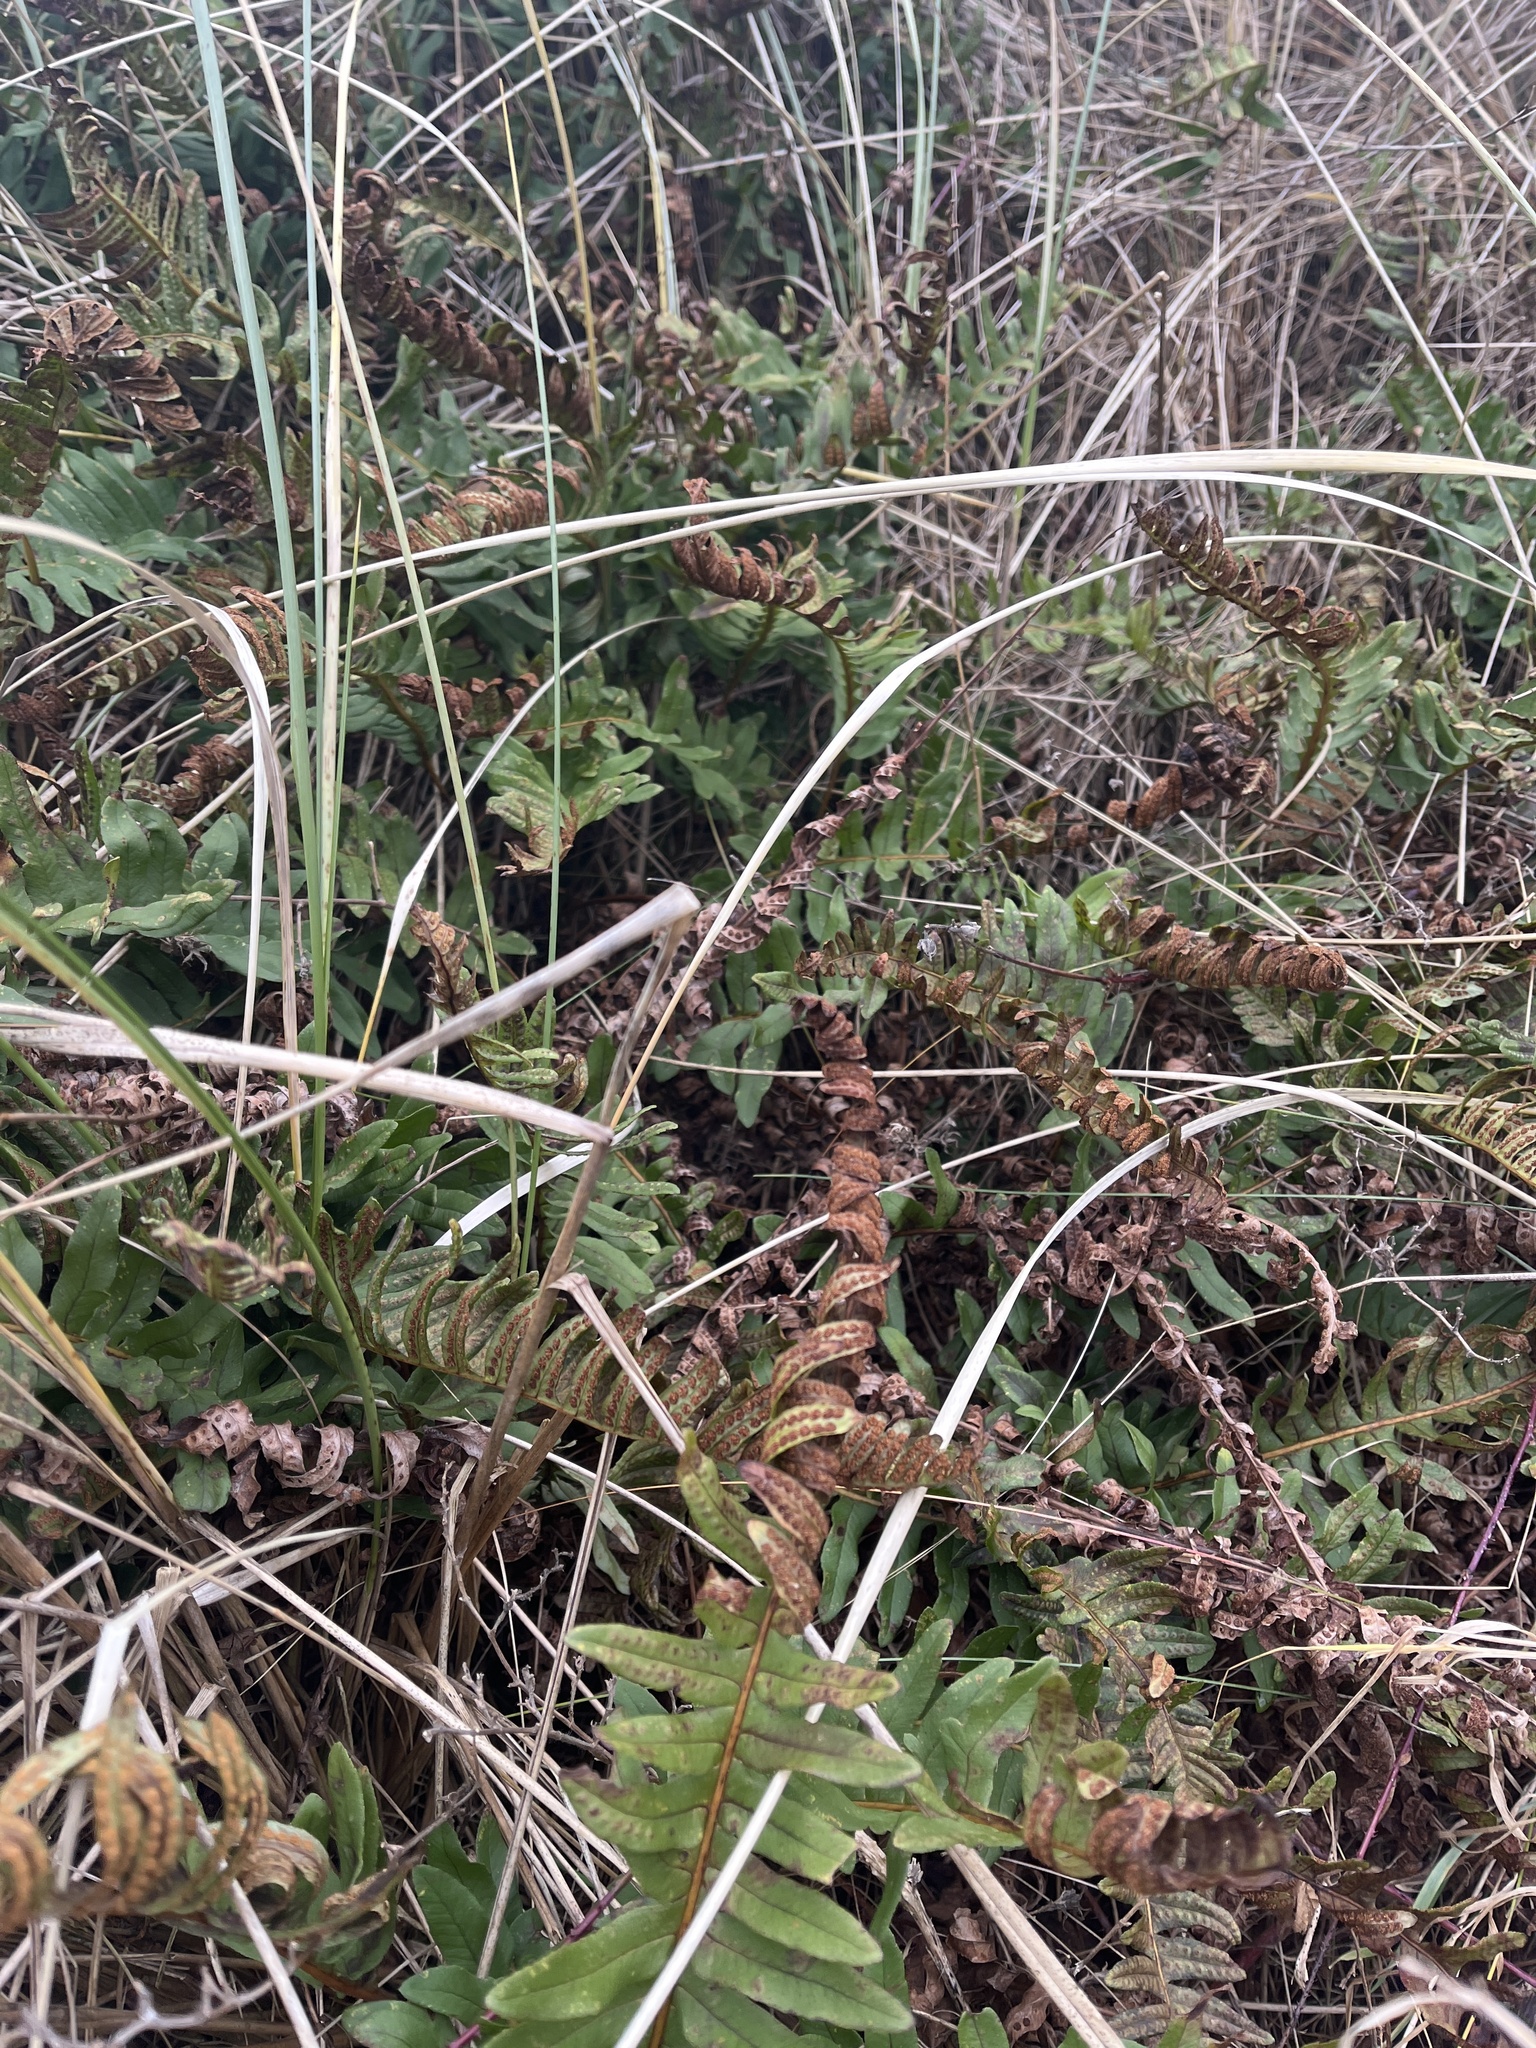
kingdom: Plantae
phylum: Tracheophyta
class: Polypodiopsida
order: Polypodiales
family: Polypodiaceae
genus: Polypodium
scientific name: Polypodium
